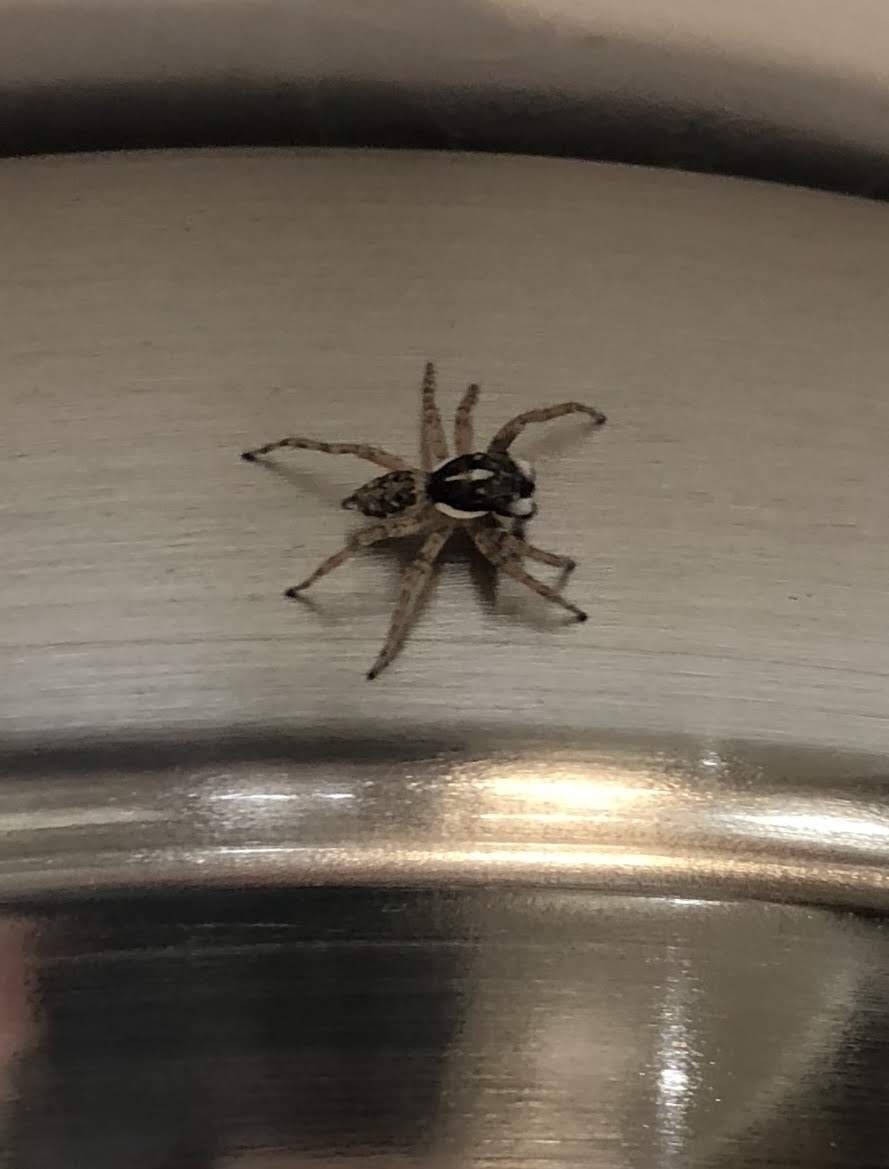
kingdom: Animalia
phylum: Arthropoda
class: Arachnida
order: Araneae
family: Salticidae
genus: Menemerus
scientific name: Menemerus semilimbatus
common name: Jumping spider
